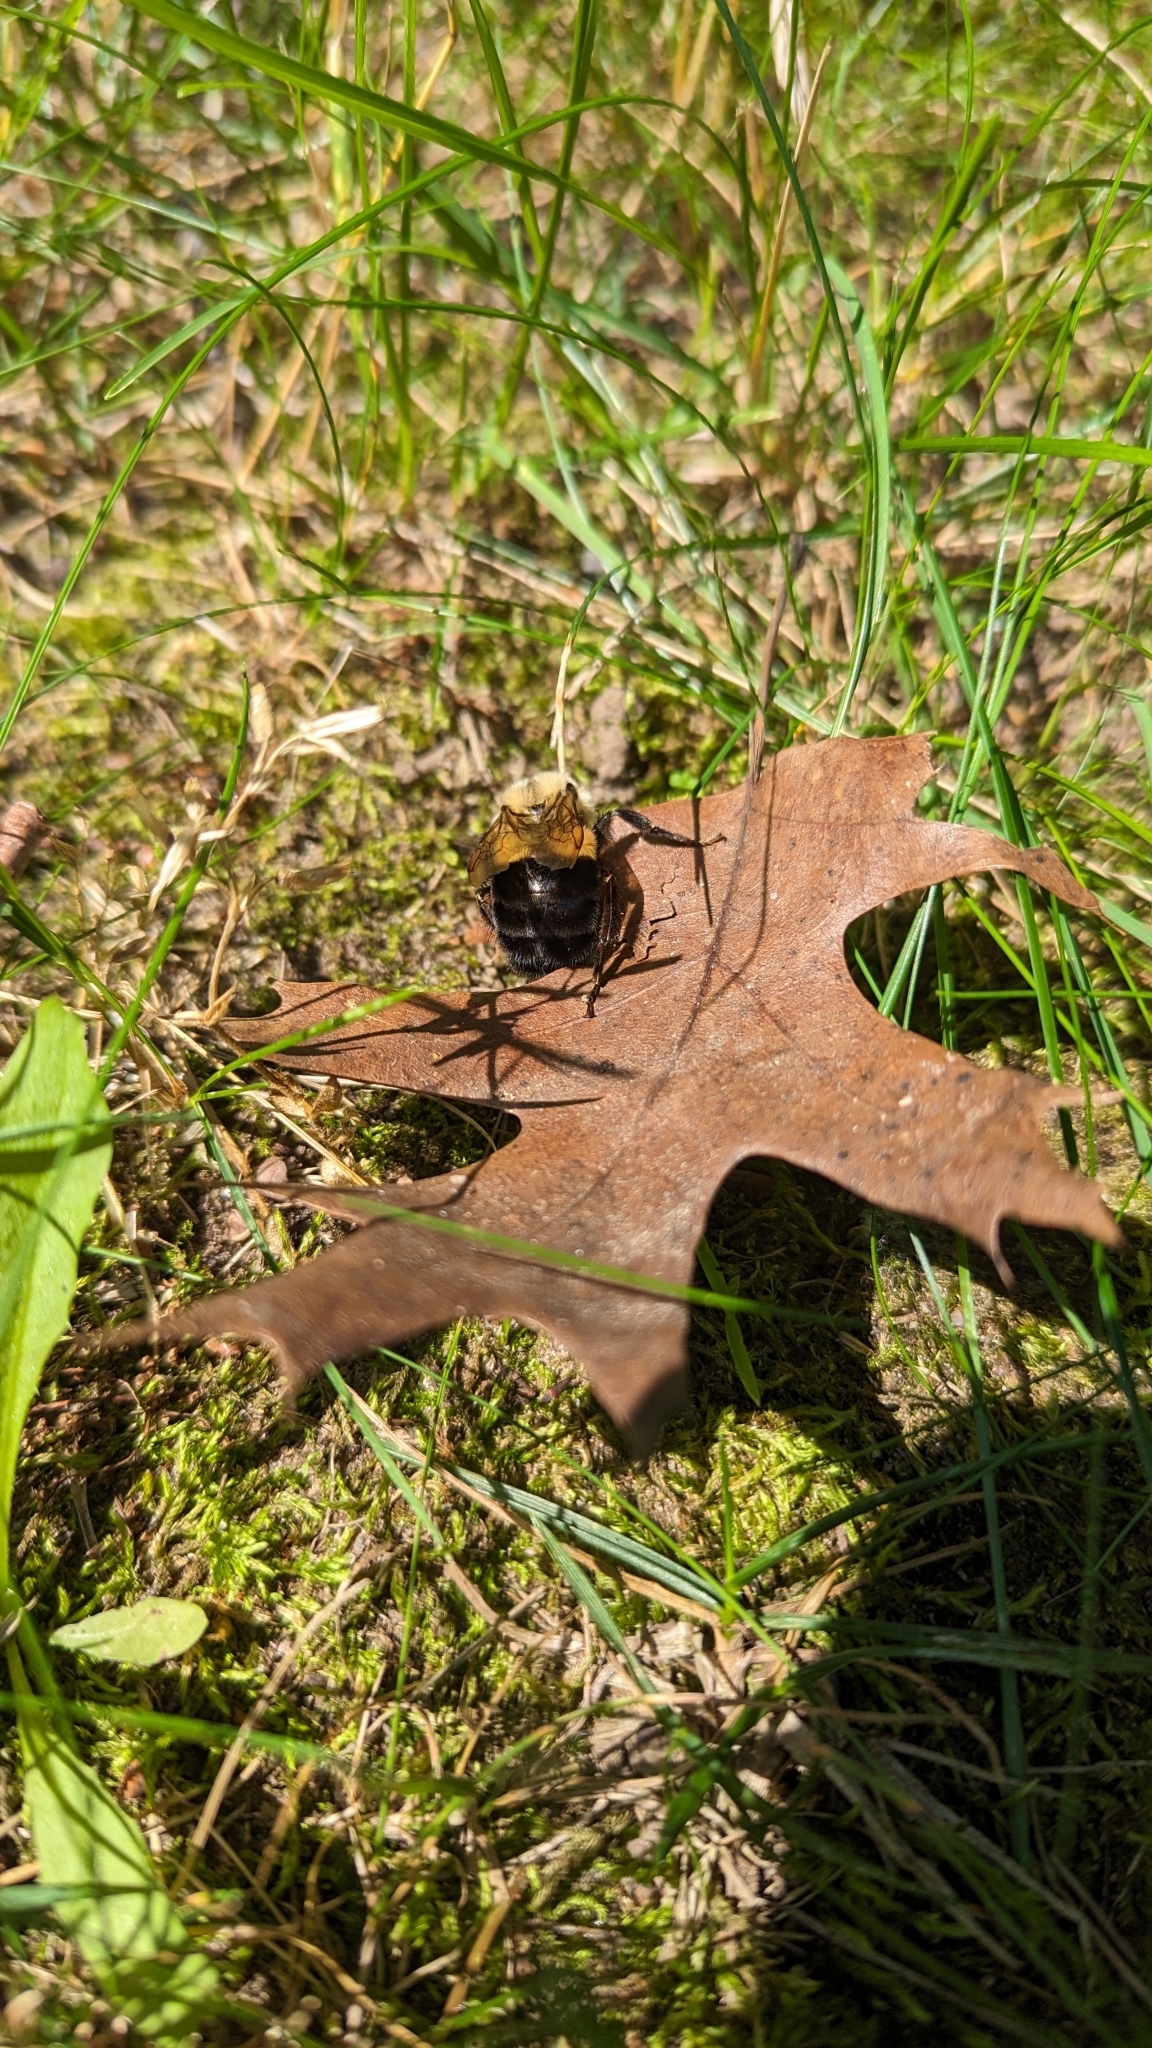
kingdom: Animalia
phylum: Arthropoda
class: Insecta
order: Hymenoptera
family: Apidae
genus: Bombus
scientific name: Bombus impatiens
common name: Common eastern bumble bee
